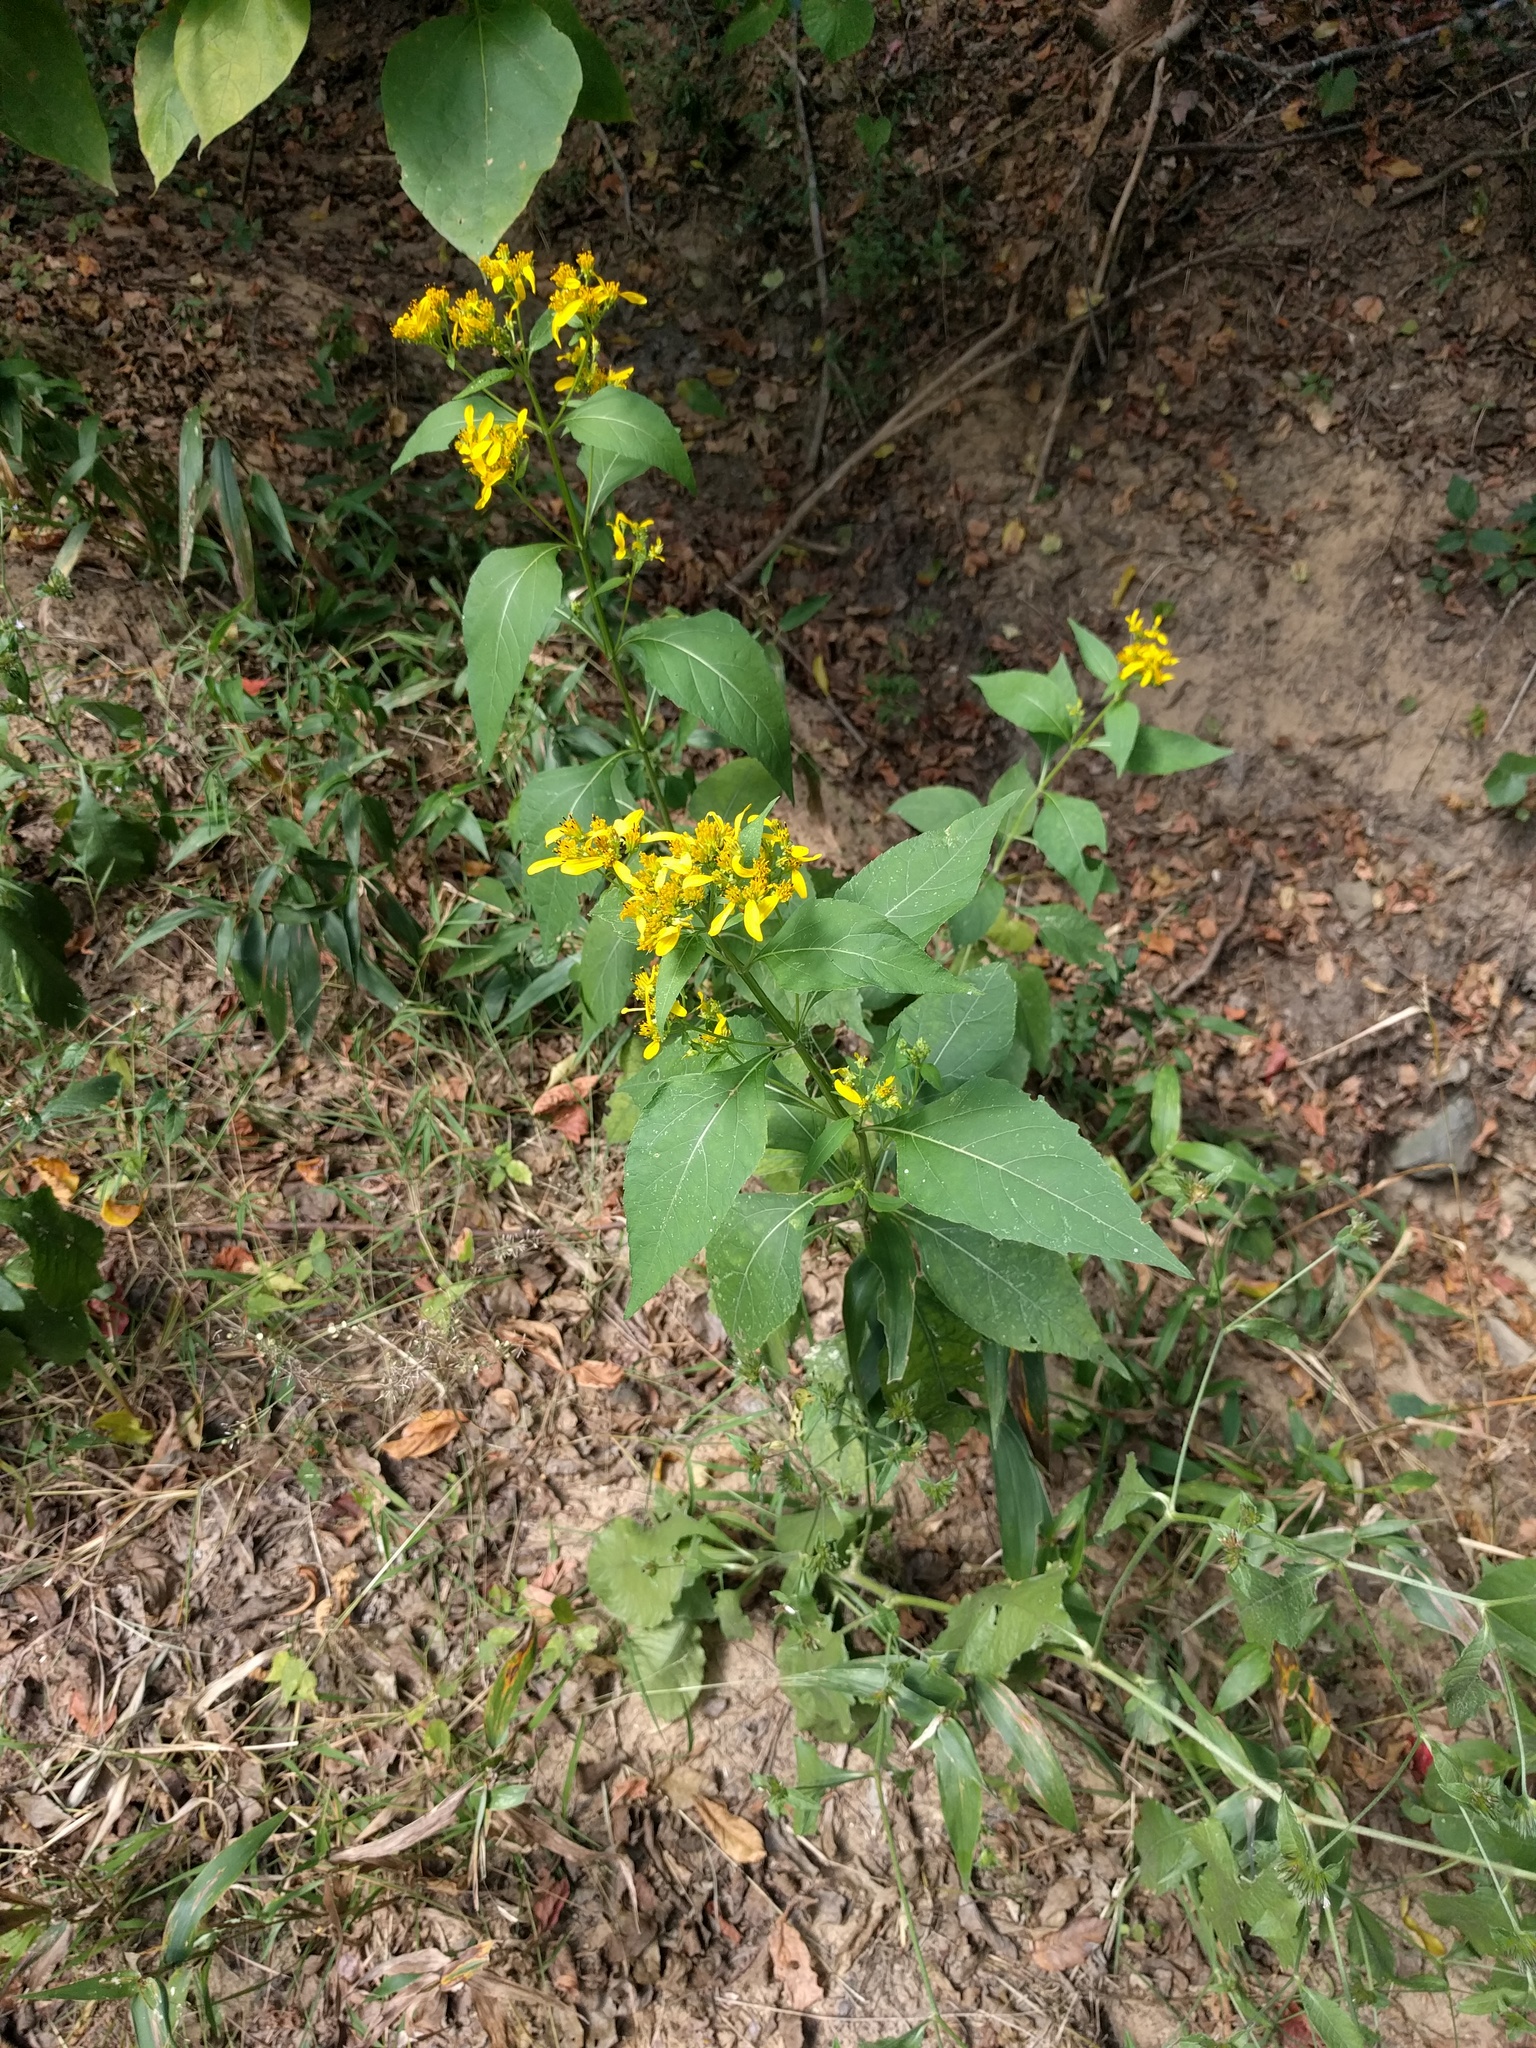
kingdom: Plantae
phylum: Tracheophyta
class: Magnoliopsida
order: Asterales
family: Asteraceae
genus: Verbesina
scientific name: Verbesina occidentalis
